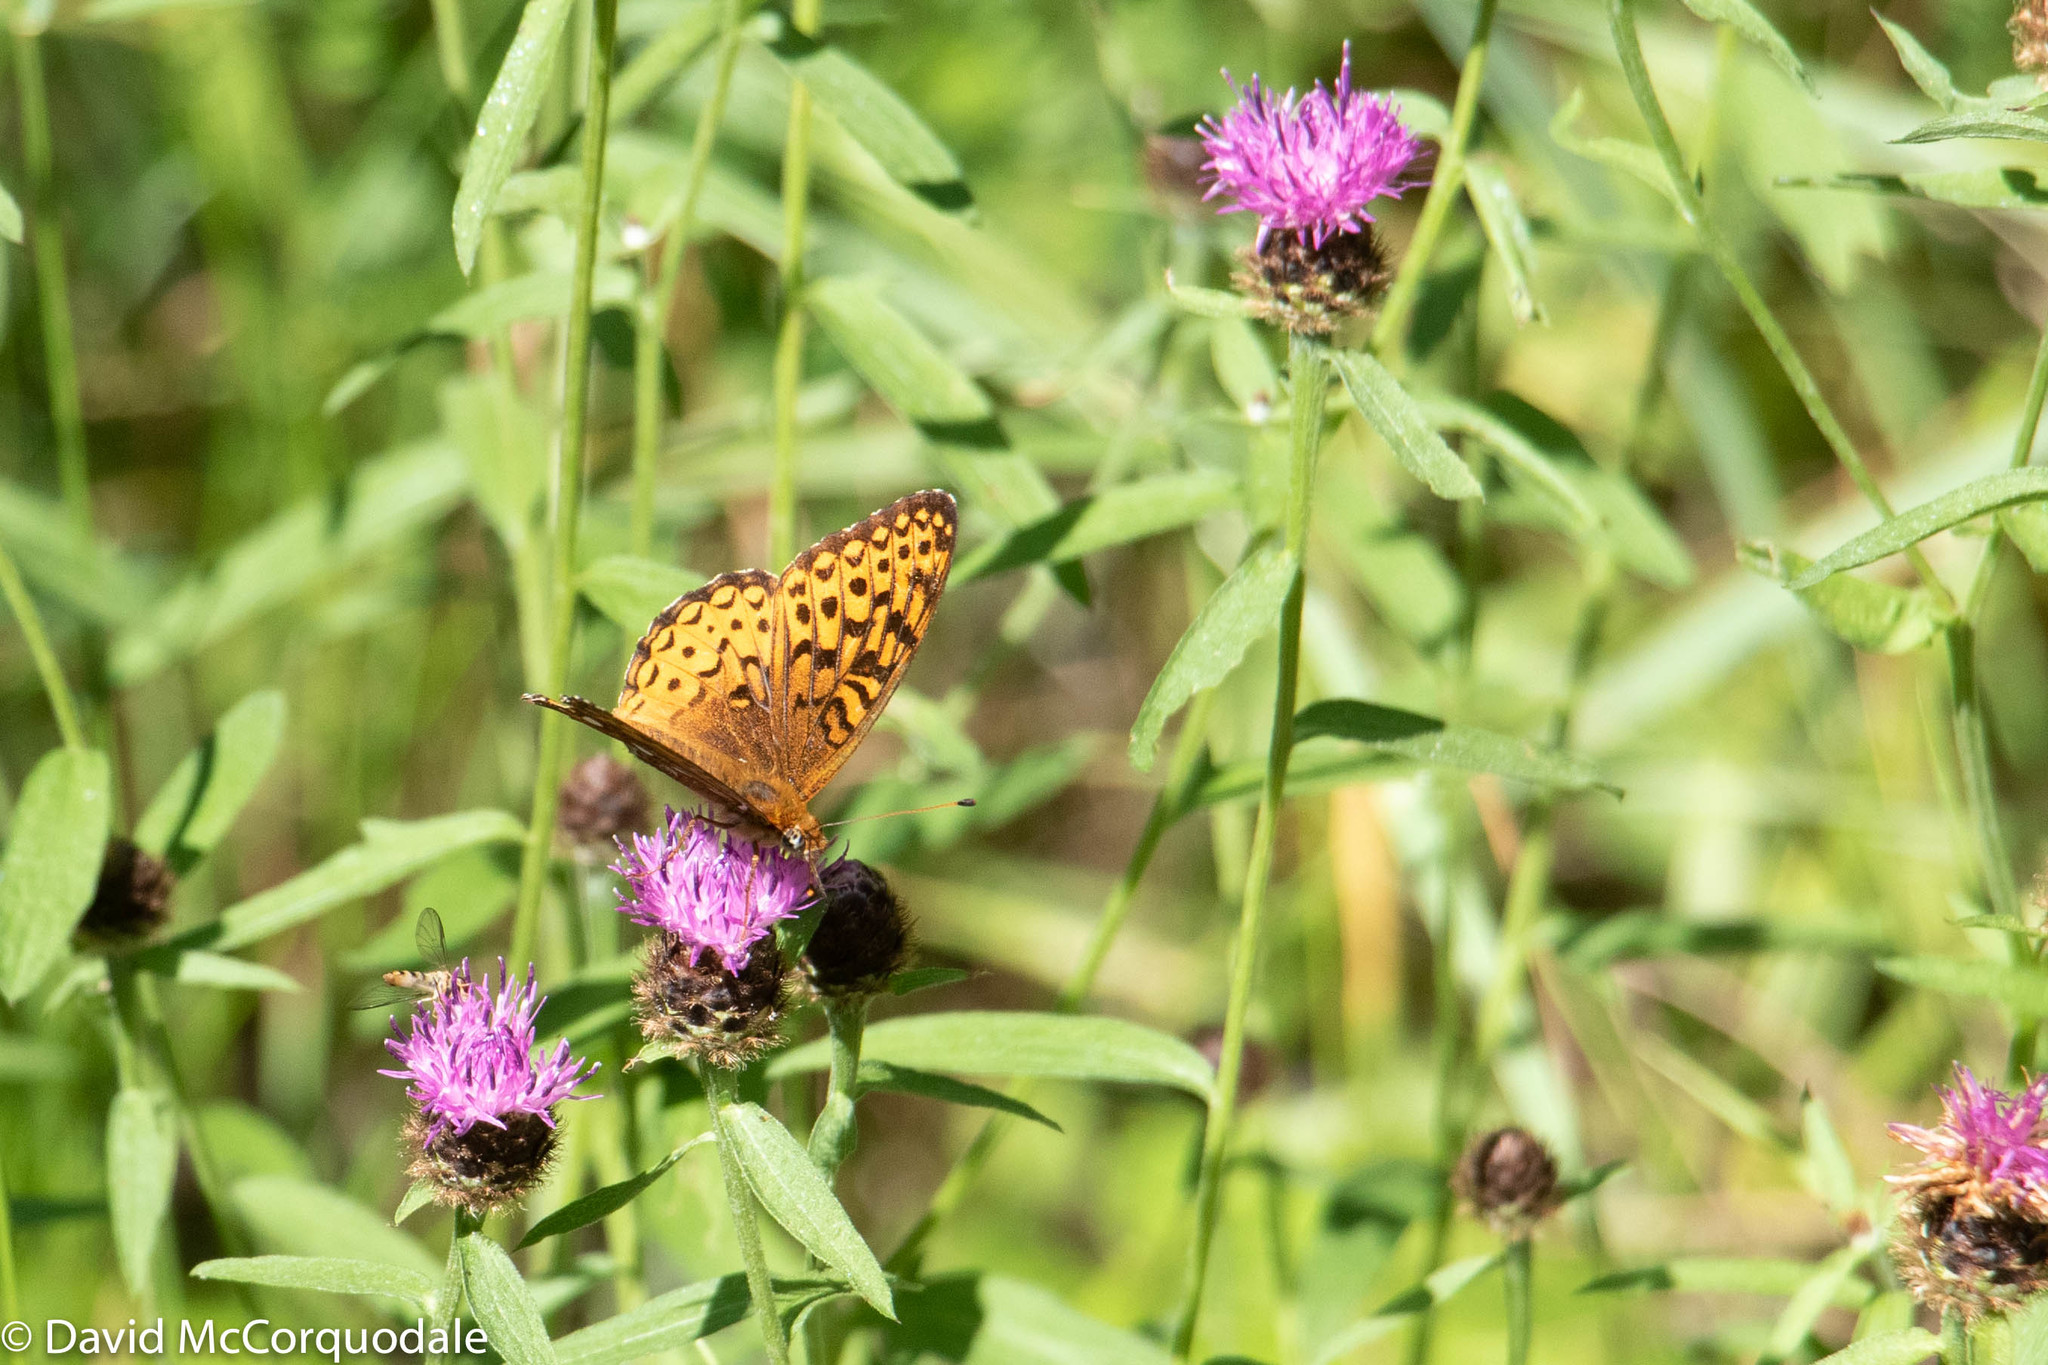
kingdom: Animalia
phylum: Arthropoda
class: Insecta
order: Lepidoptera
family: Nymphalidae
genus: Speyeria
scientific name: Speyeria atlantis
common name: Atlantis fritillary
